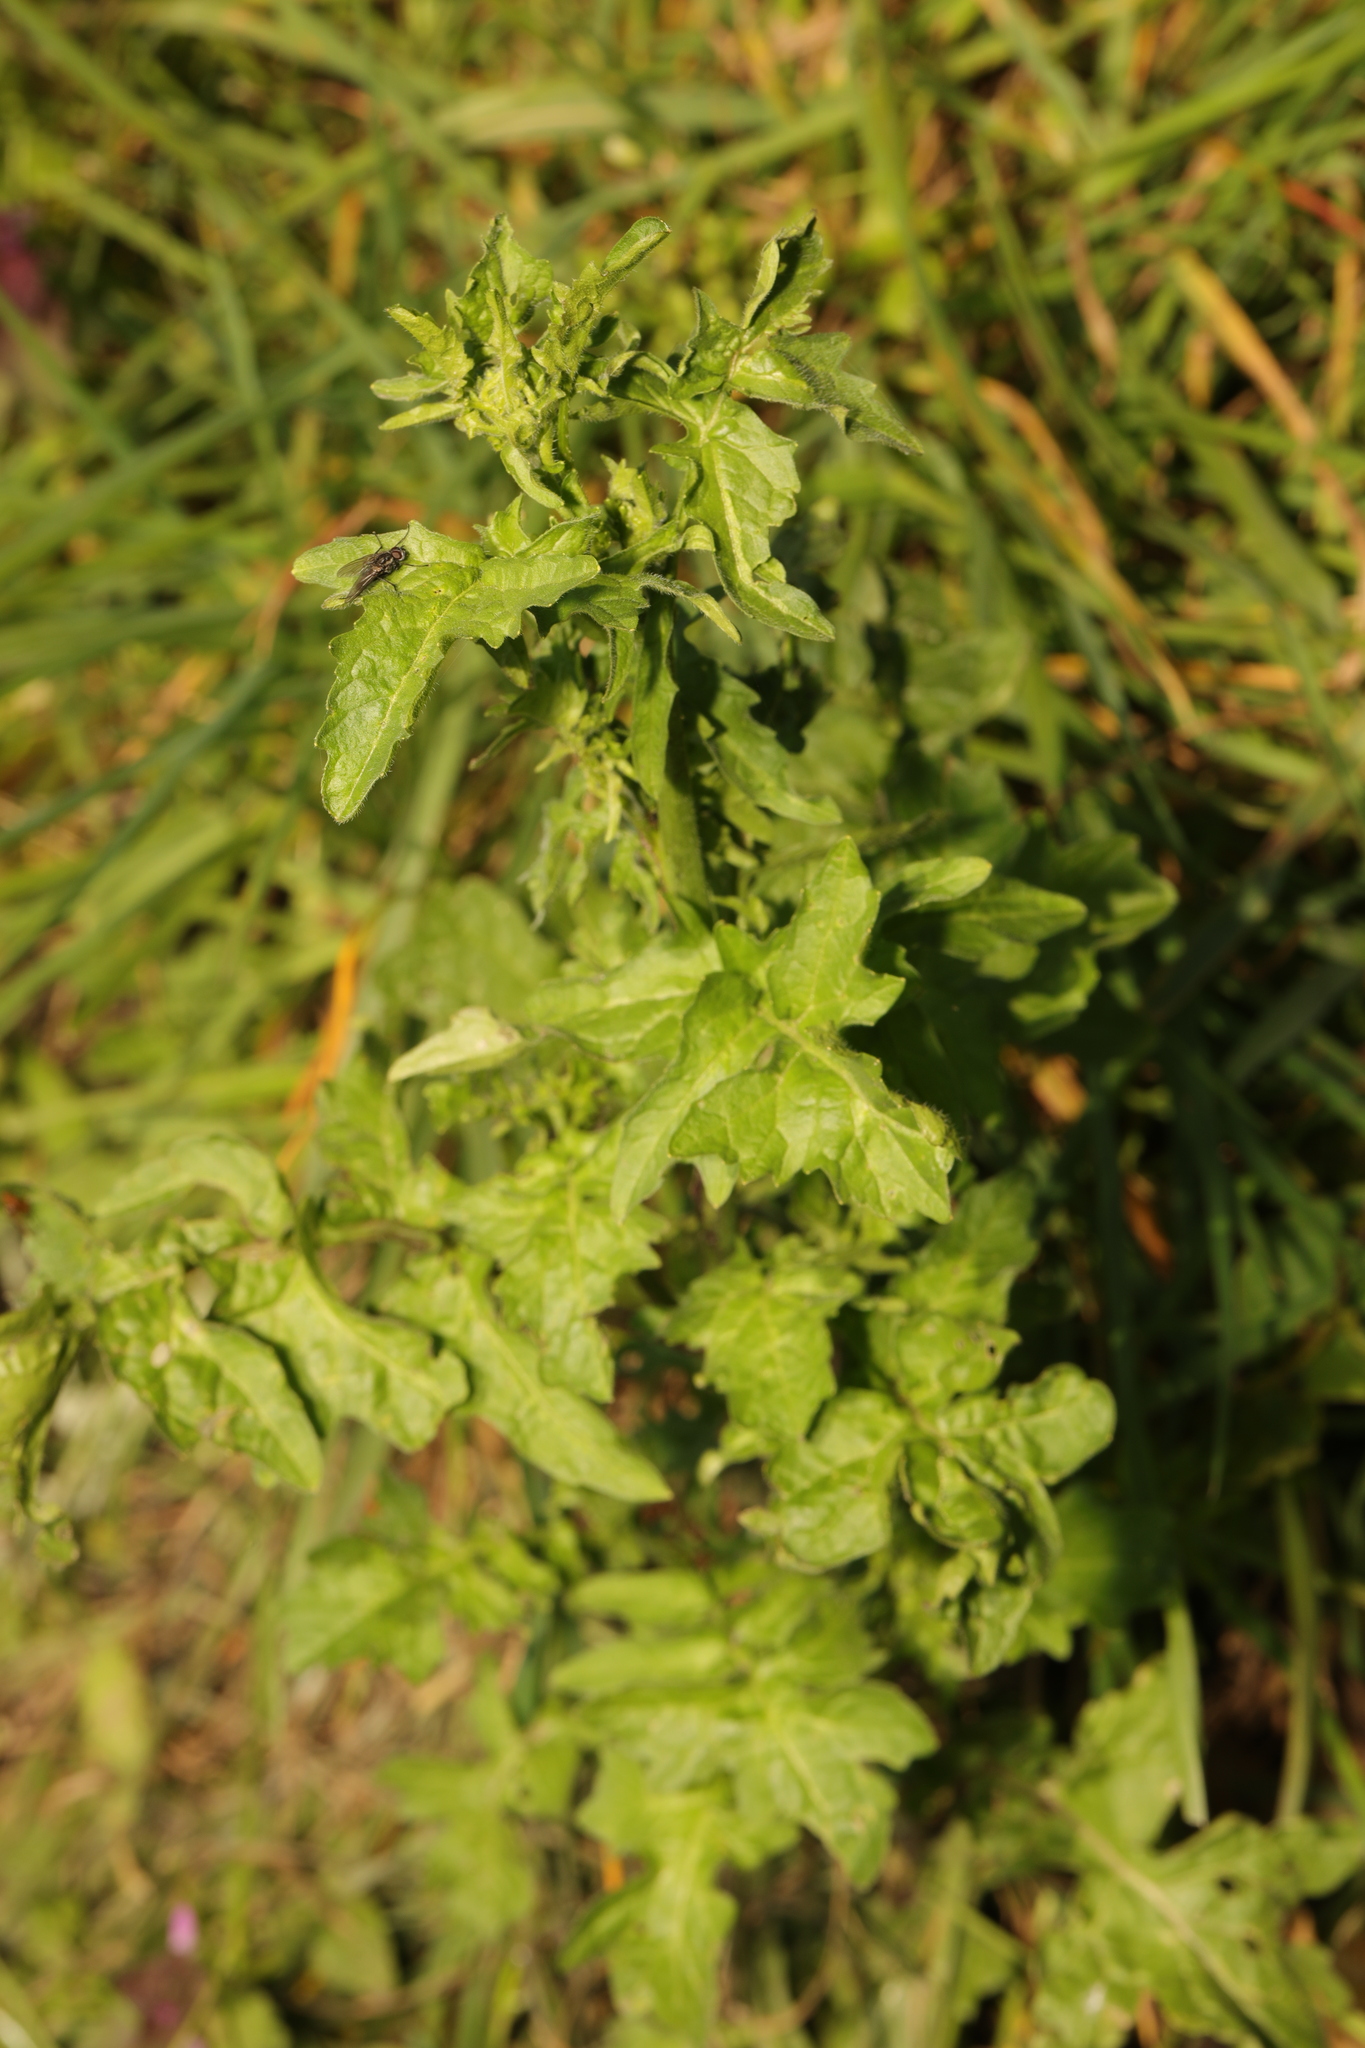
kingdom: Plantae
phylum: Tracheophyta
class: Magnoliopsida
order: Brassicales
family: Brassicaceae
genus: Sisymbrium
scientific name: Sisymbrium officinale
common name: Hedge mustard
